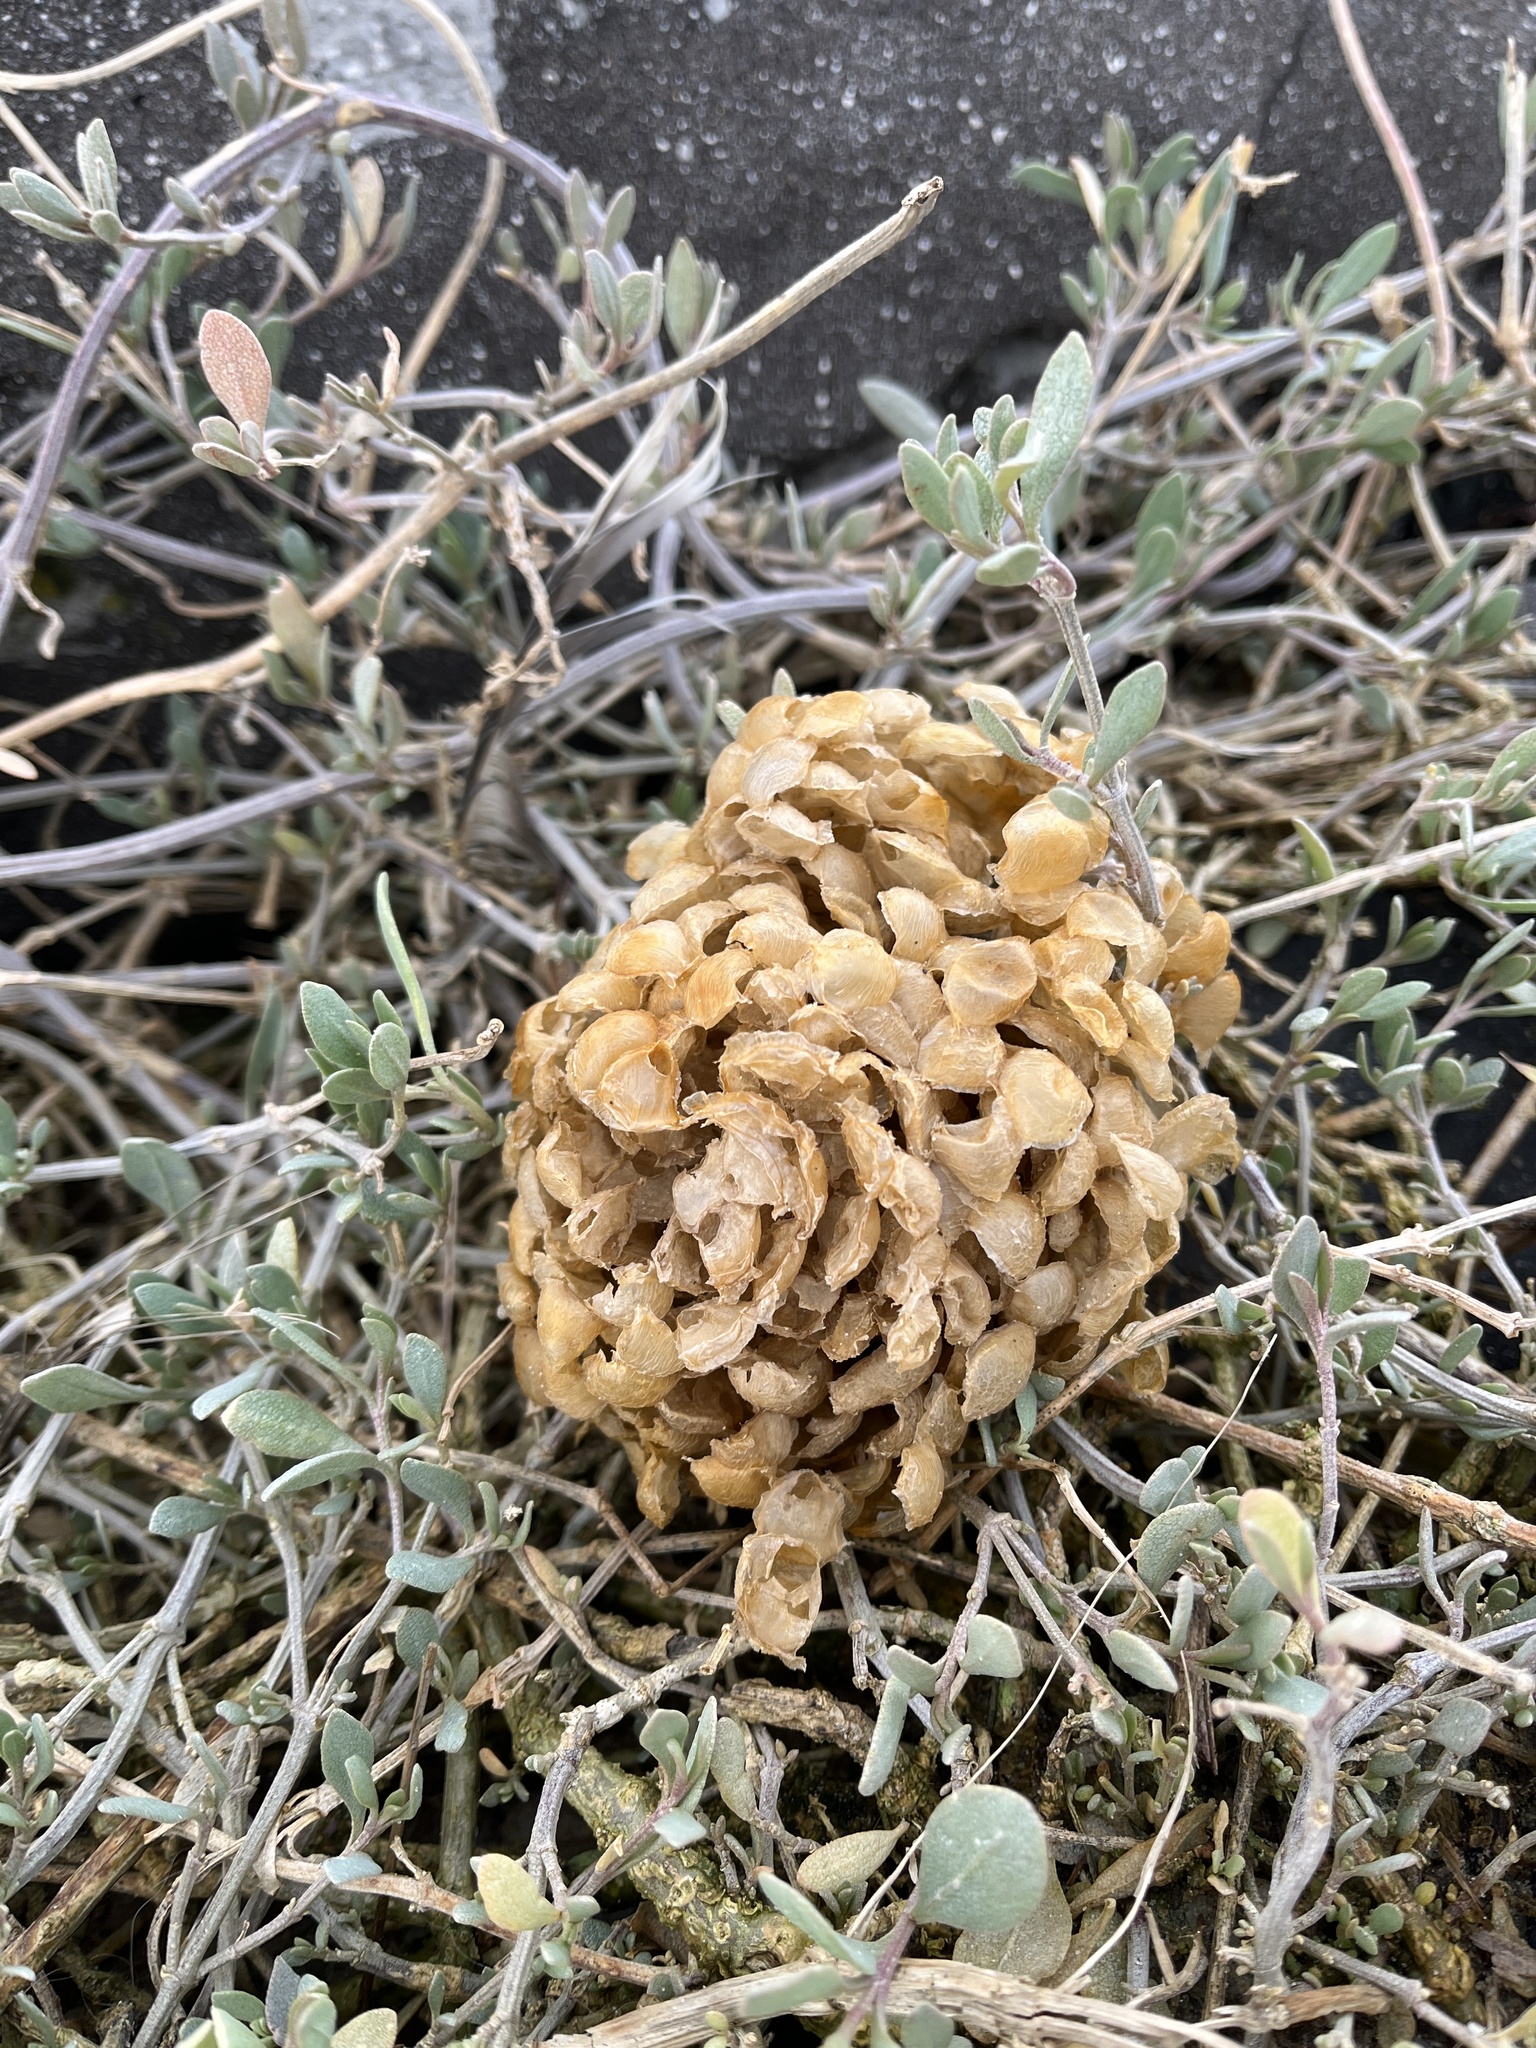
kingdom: Animalia
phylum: Mollusca
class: Gastropoda
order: Neogastropoda
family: Buccinidae
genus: Buccinum
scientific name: Buccinum undatum
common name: Common whelk
